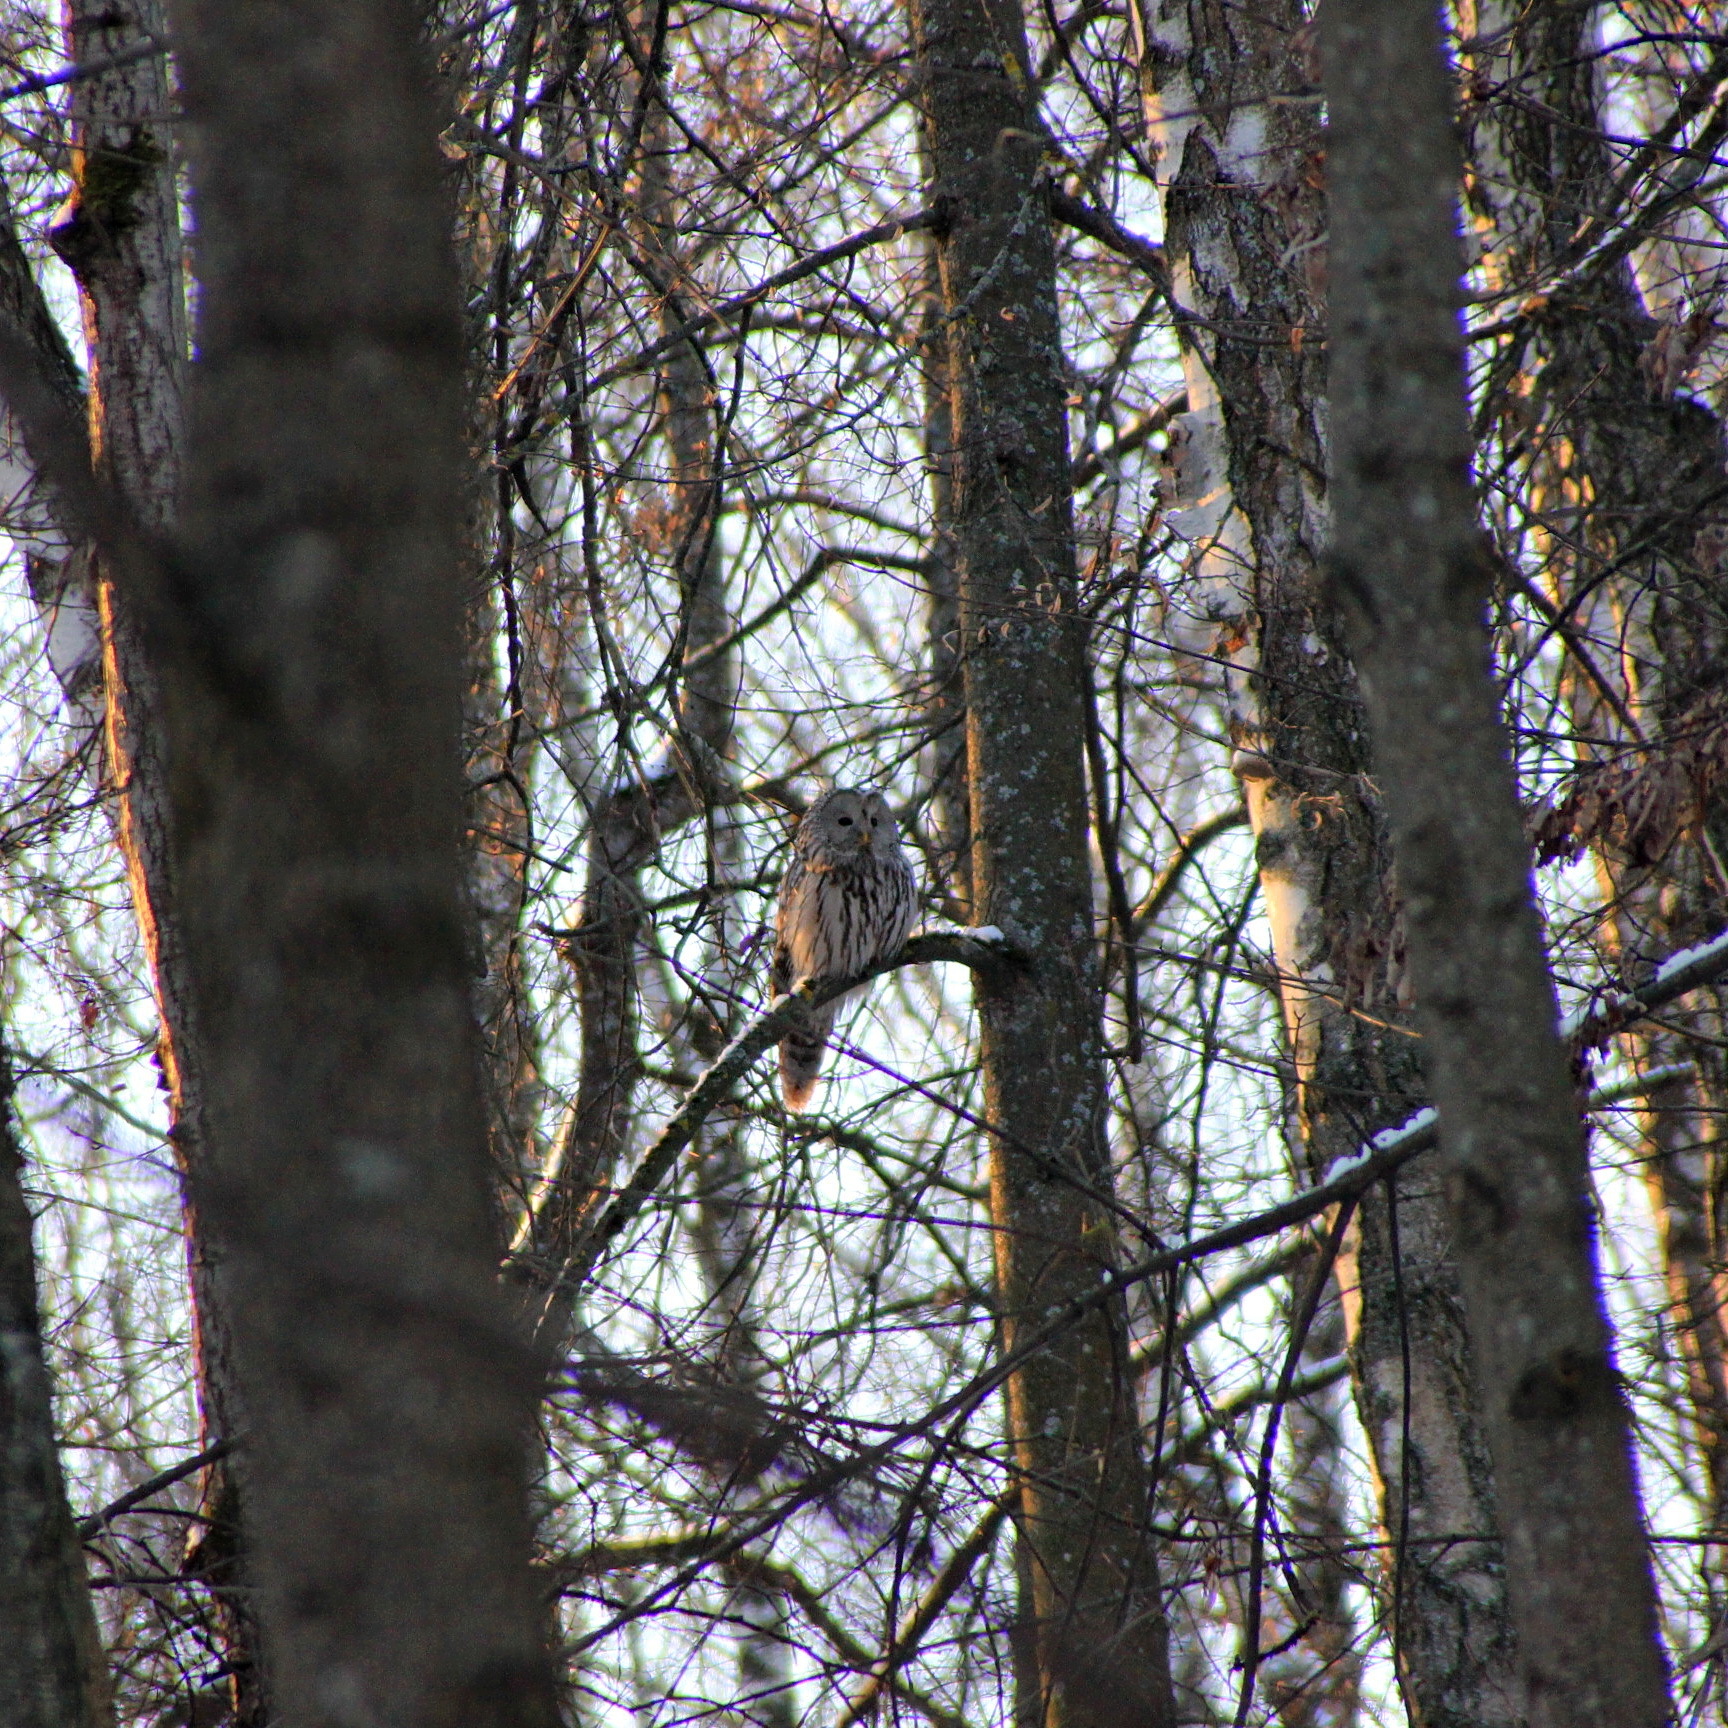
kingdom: Animalia
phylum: Chordata
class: Aves
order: Strigiformes
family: Strigidae
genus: Strix
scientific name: Strix uralensis
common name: Ural owl
